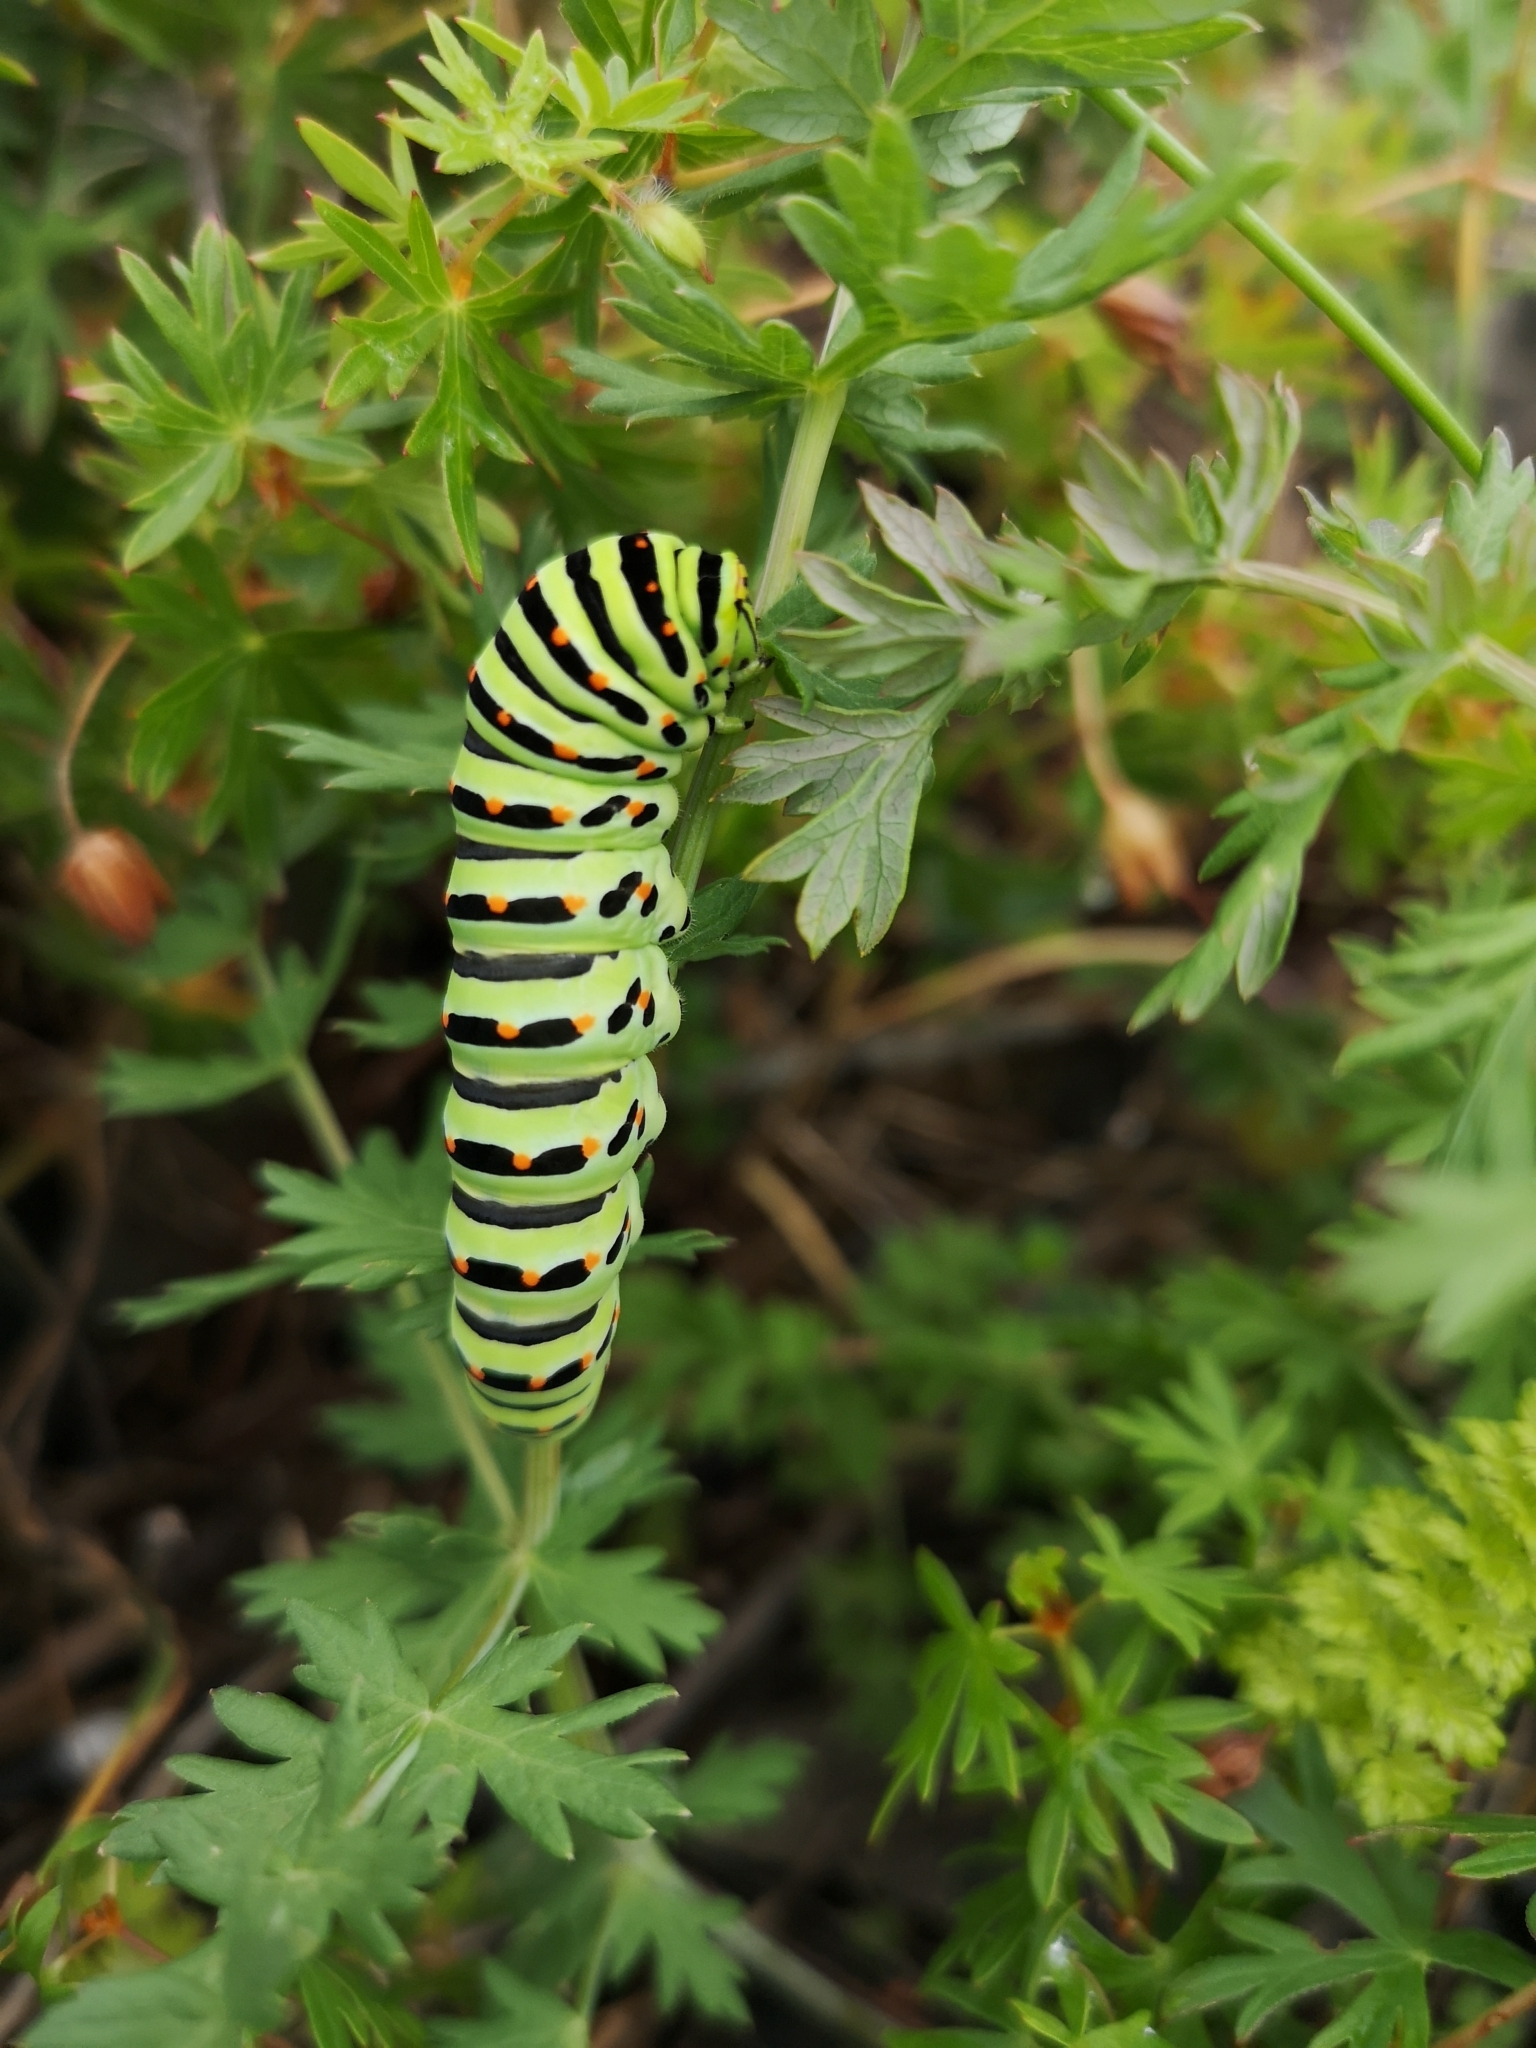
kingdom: Animalia
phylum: Arthropoda
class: Insecta
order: Lepidoptera
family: Papilionidae
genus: Papilio
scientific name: Papilio machaon
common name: Swallowtail
